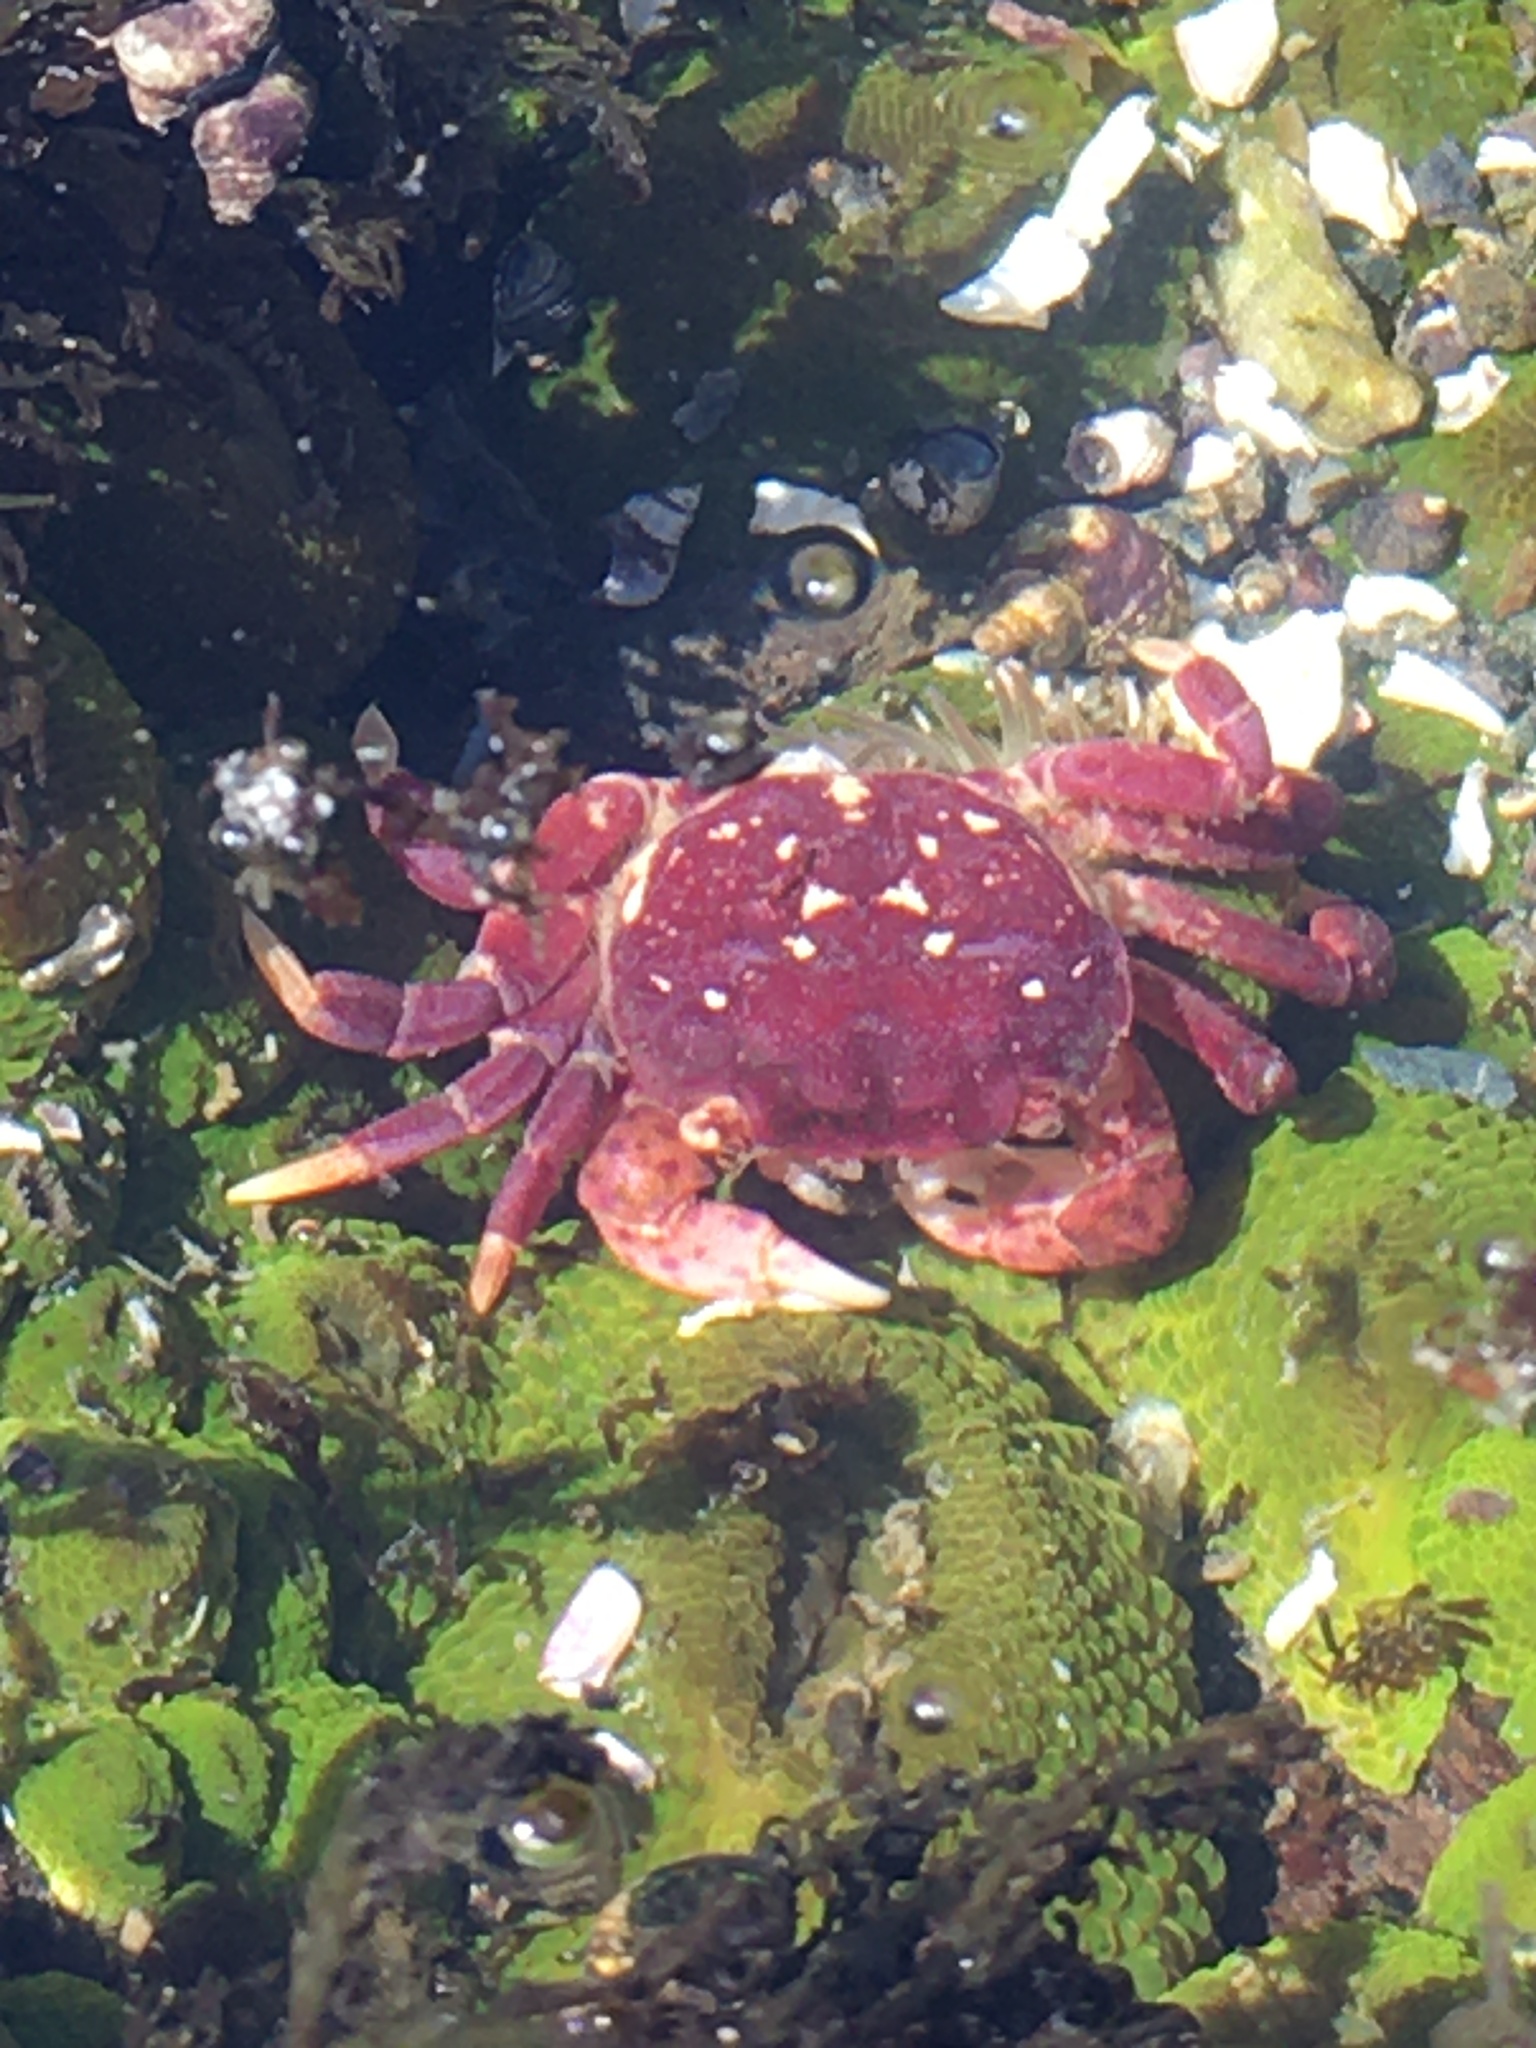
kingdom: Animalia
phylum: Arthropoda
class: Malacostraca
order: Decapoda
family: Varunidae
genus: Hemigrapsus
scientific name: Hemigrapsus nudus
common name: Purple shore crab
